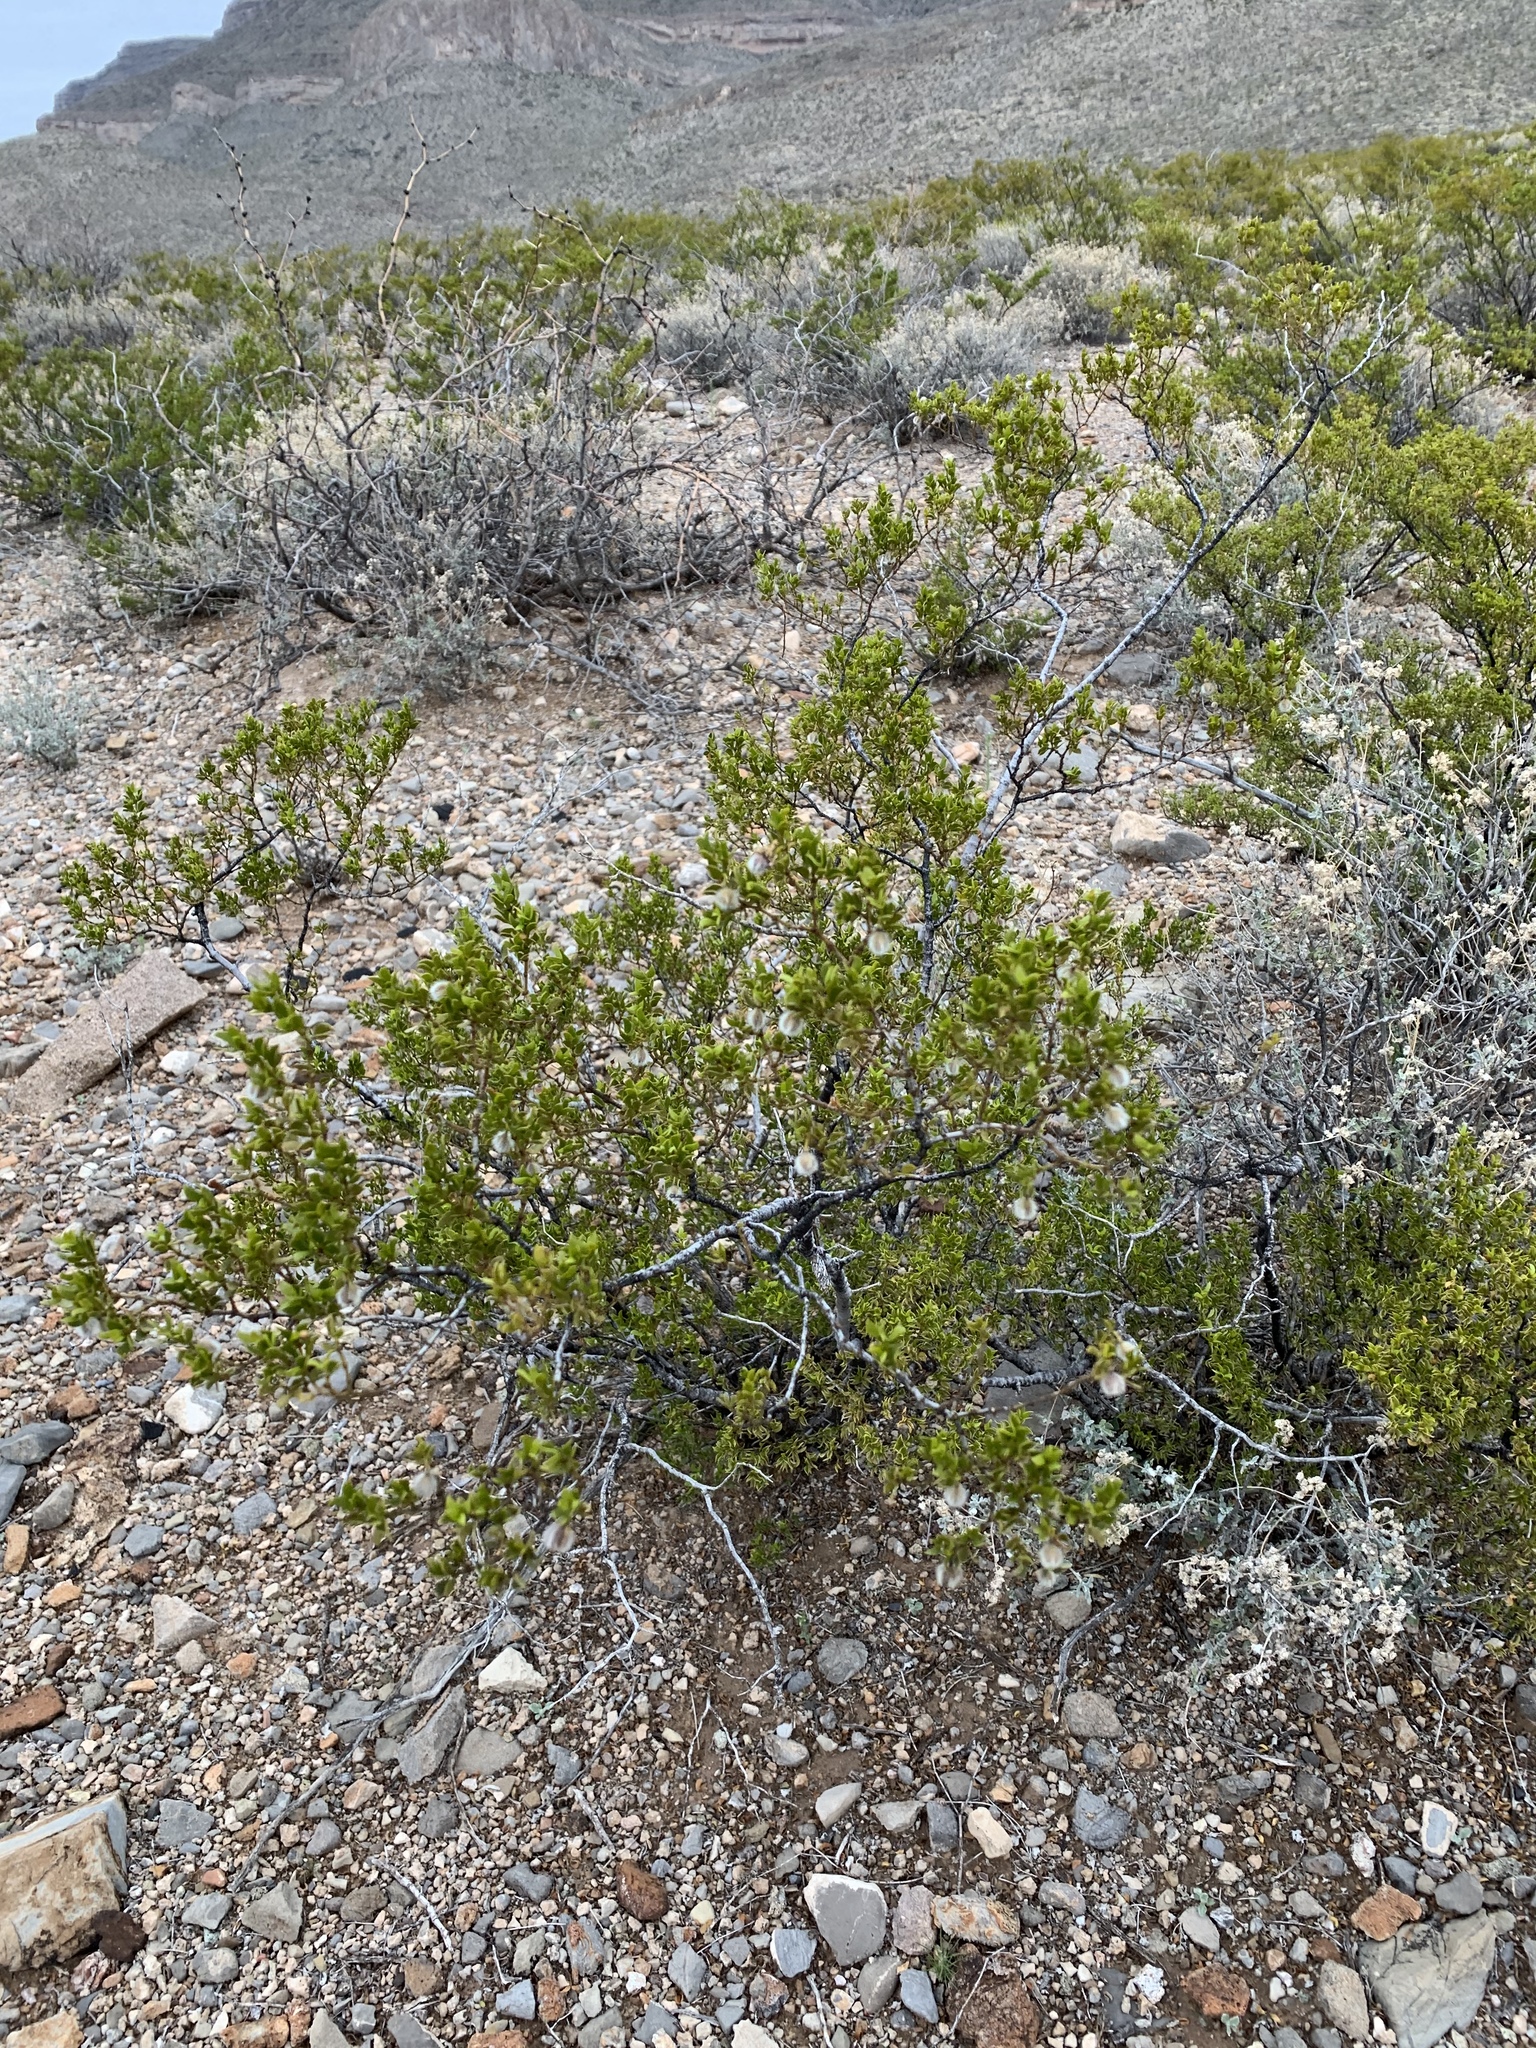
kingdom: Plantae
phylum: Tracheophyta
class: Magnoliopsida
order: Zygophyllales
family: Zygophyllaceae
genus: Larrea
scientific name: Larrea tridentata
